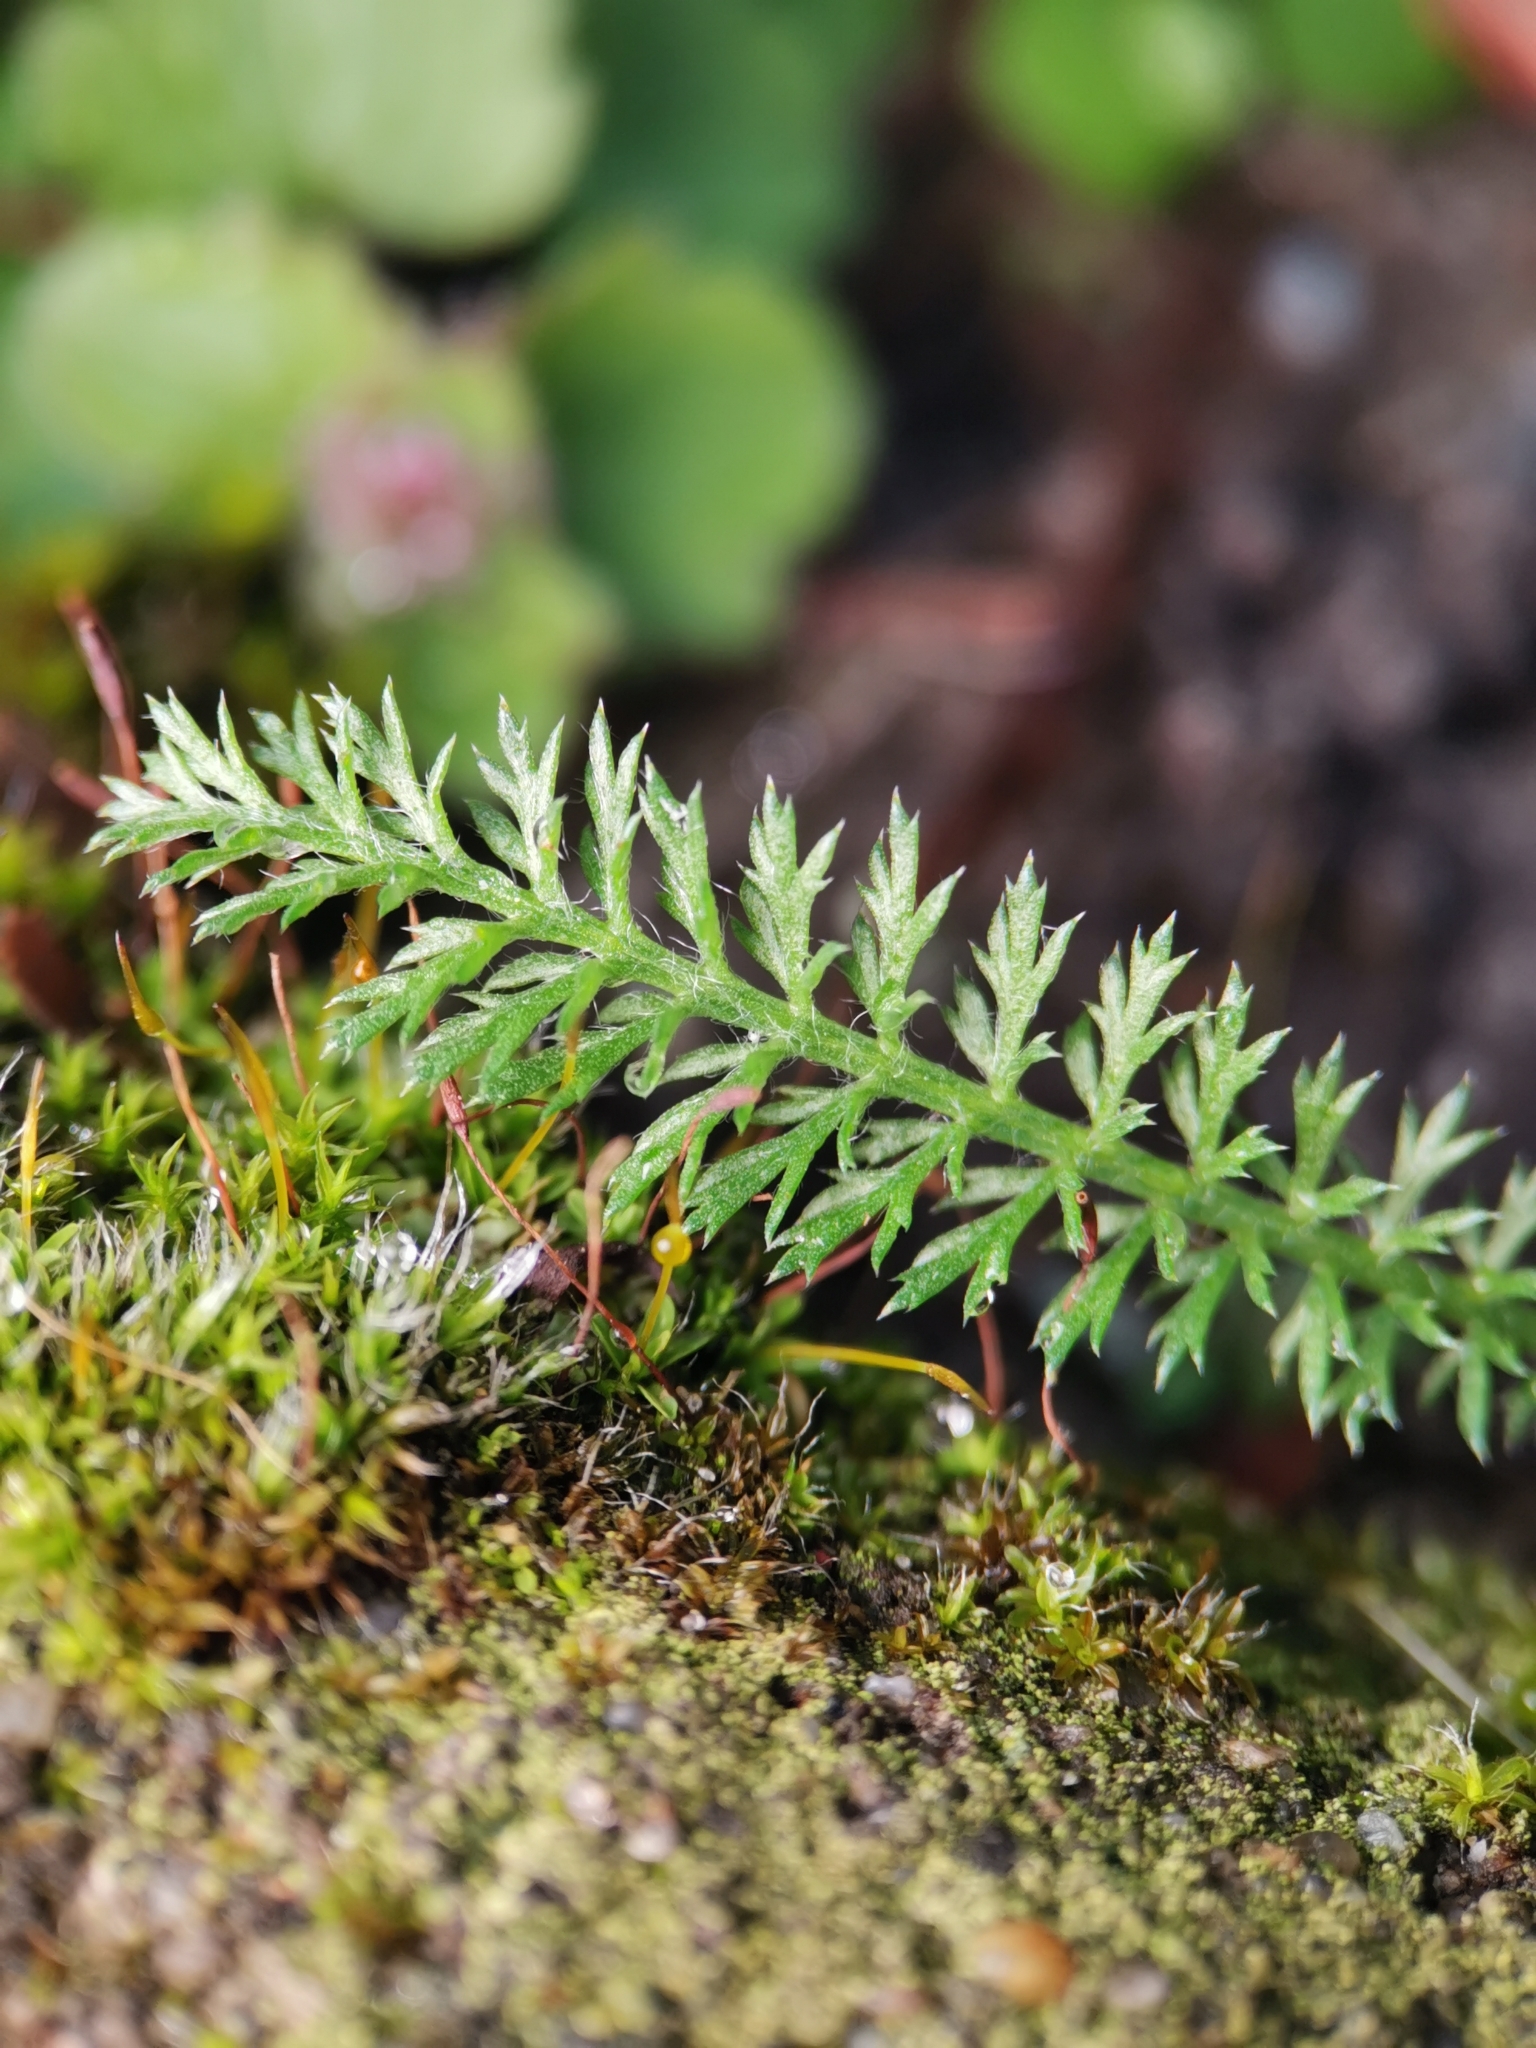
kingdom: Plantae
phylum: Tracheophyta
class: Magnoliopsida
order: Asterales
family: Asteraceae
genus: Achillea
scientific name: Achillea millefolium
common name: Yarrow
